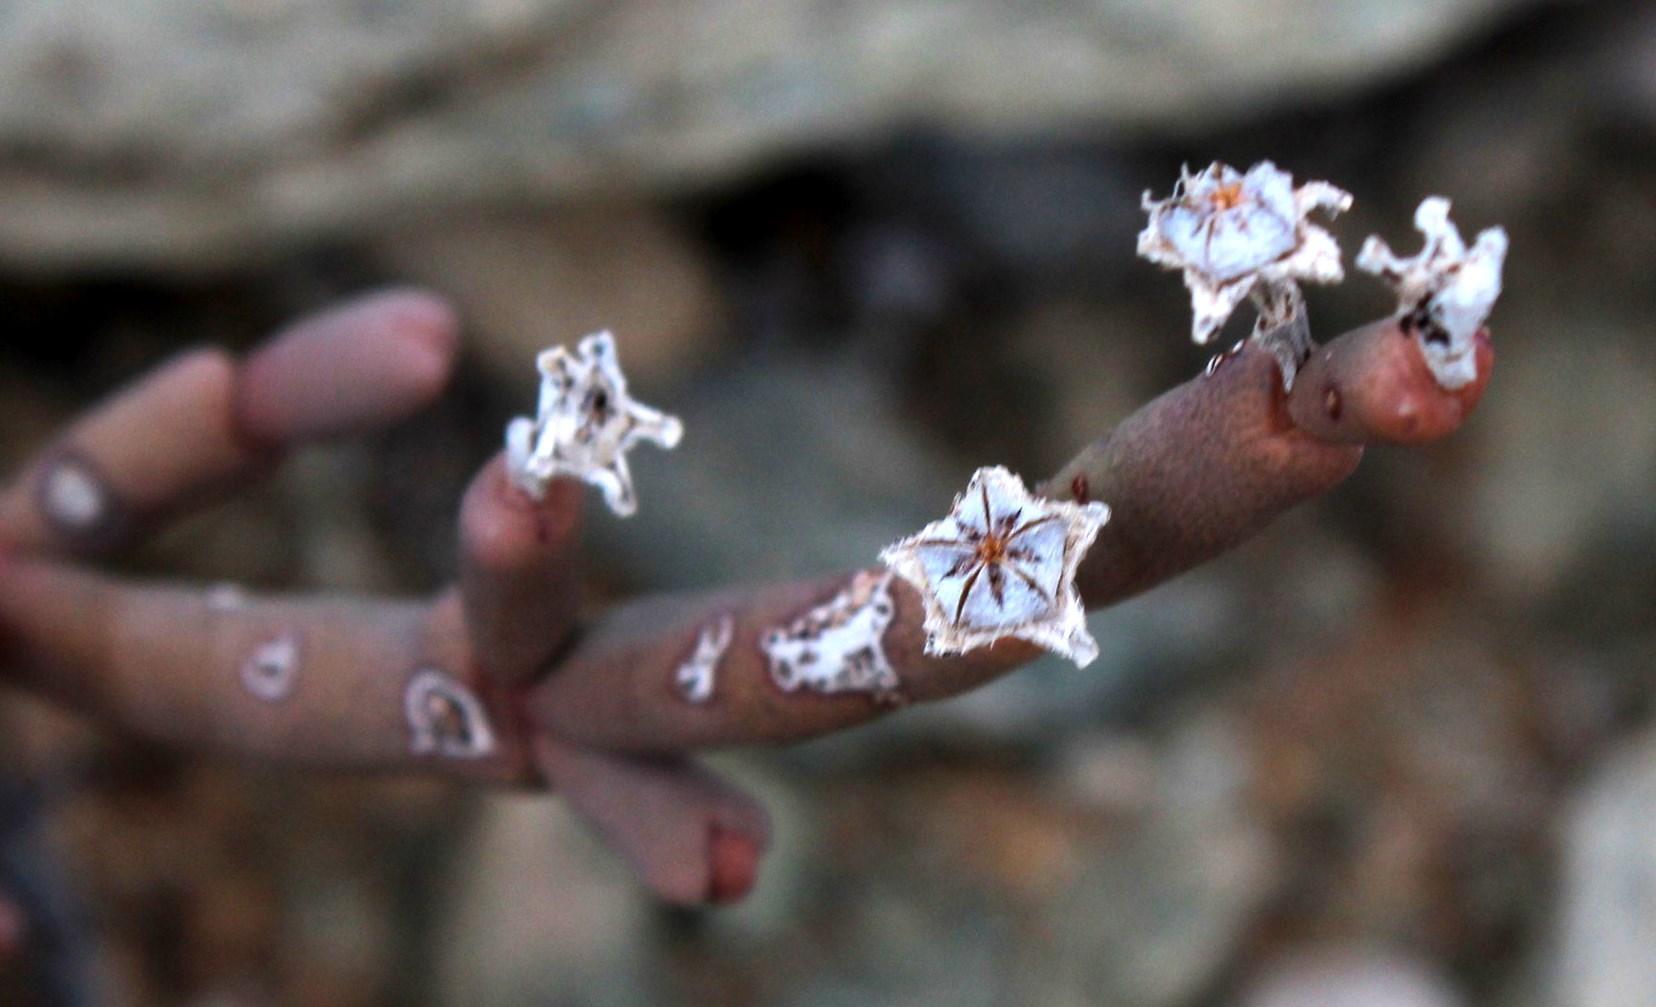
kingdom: Plantae
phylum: Tracheophyta
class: Magnoliopsida
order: Caryophyllales
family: Aizoaceae
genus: Ruschia
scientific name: Ruschia abbreviata
